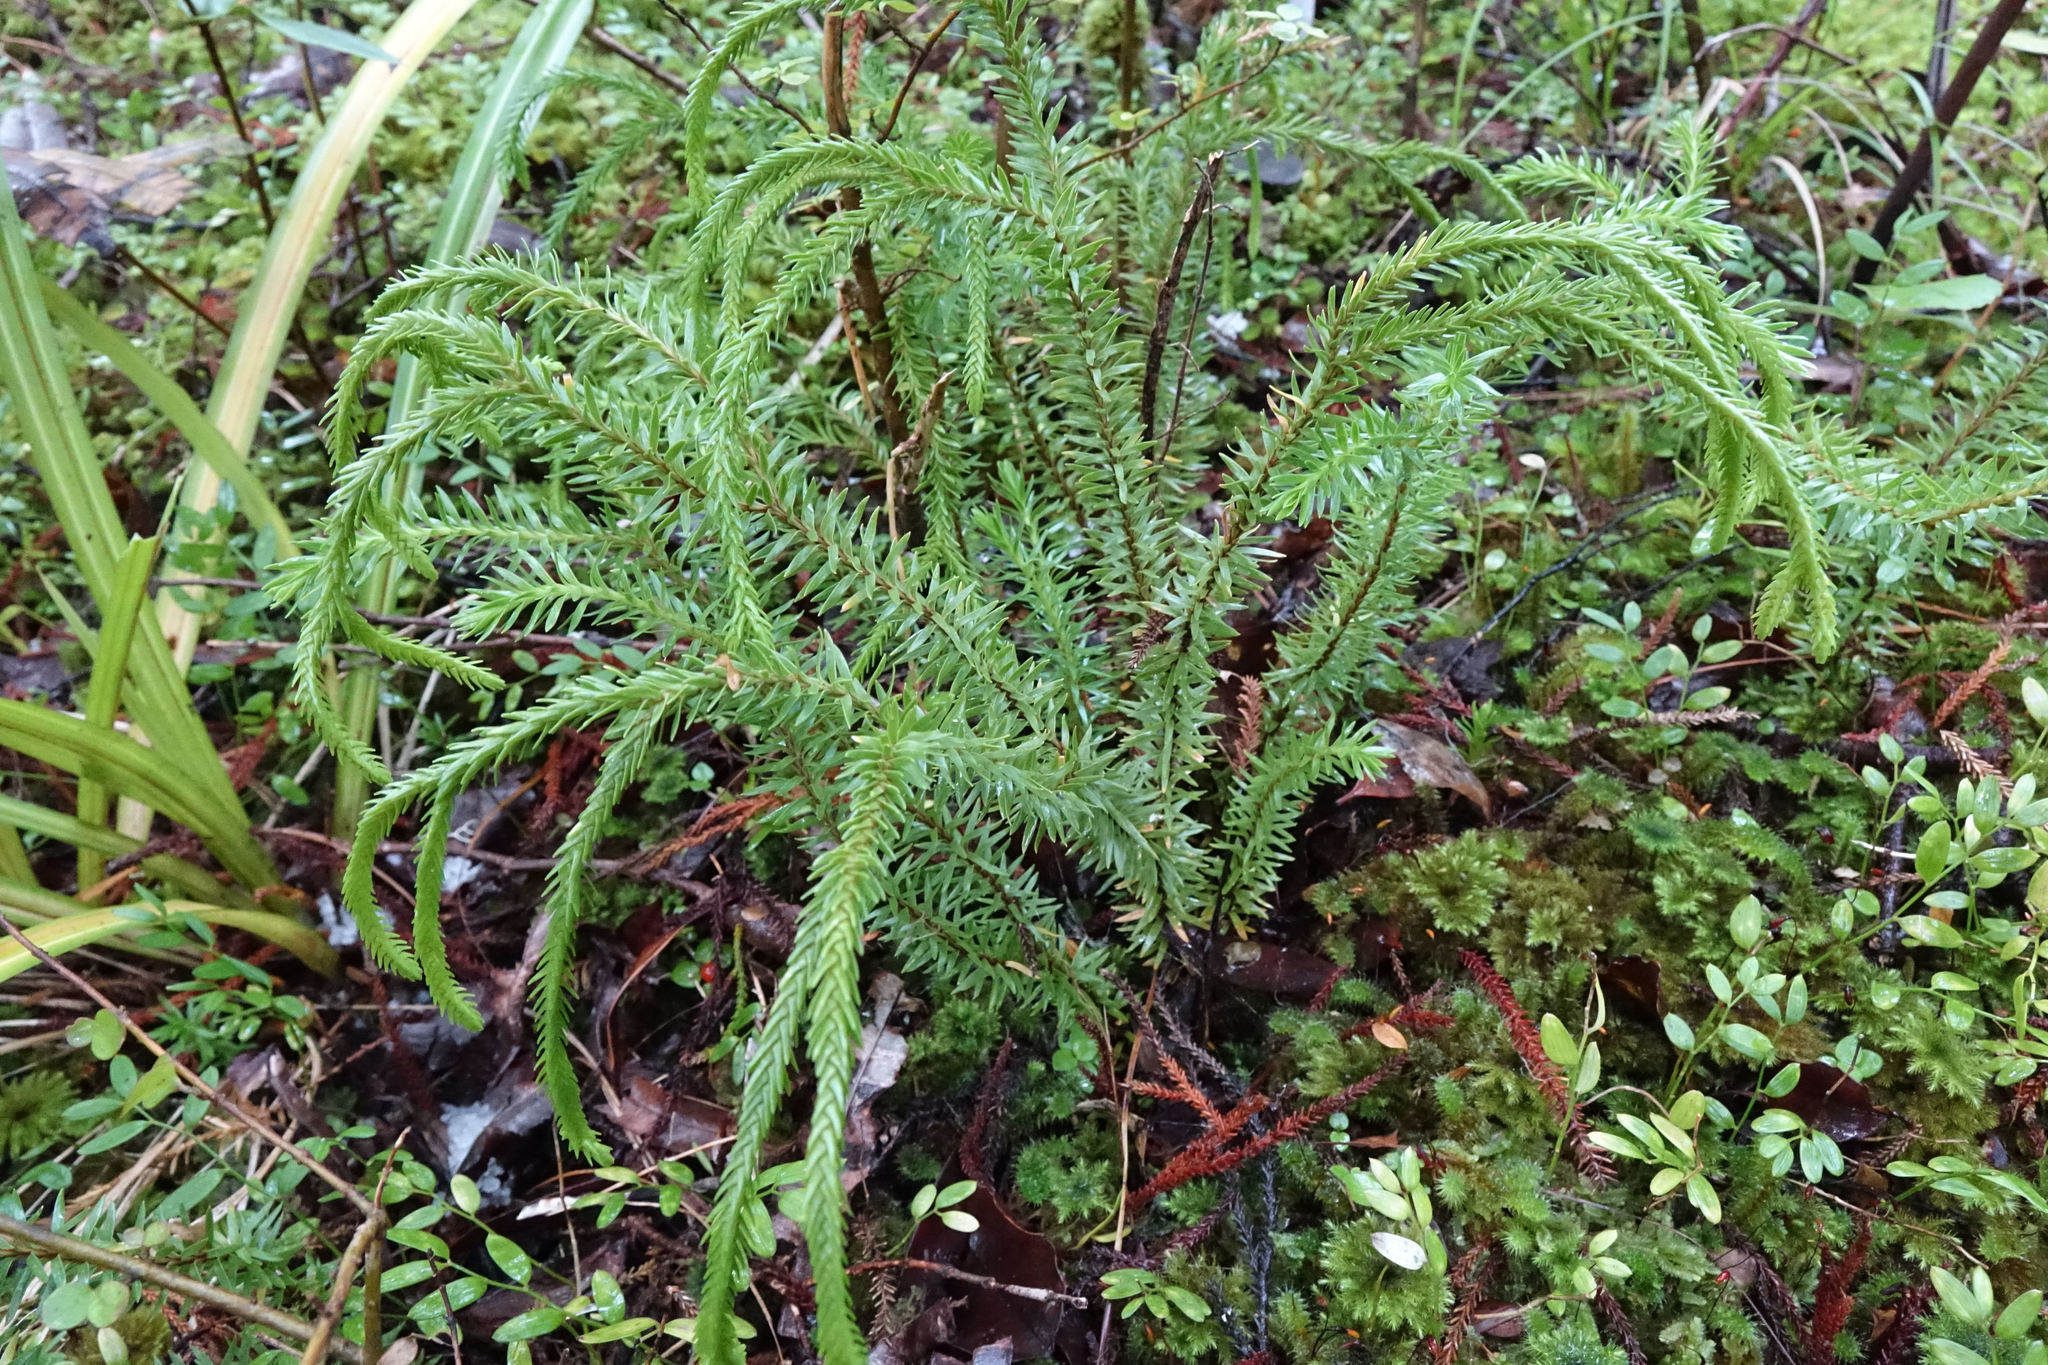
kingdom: Plantae
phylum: Tracheophyta
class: Lycopodiopsida
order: Lycopodiales
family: Lycopodiaceae
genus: Phlegmariurus
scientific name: Phlegmariurus varius
